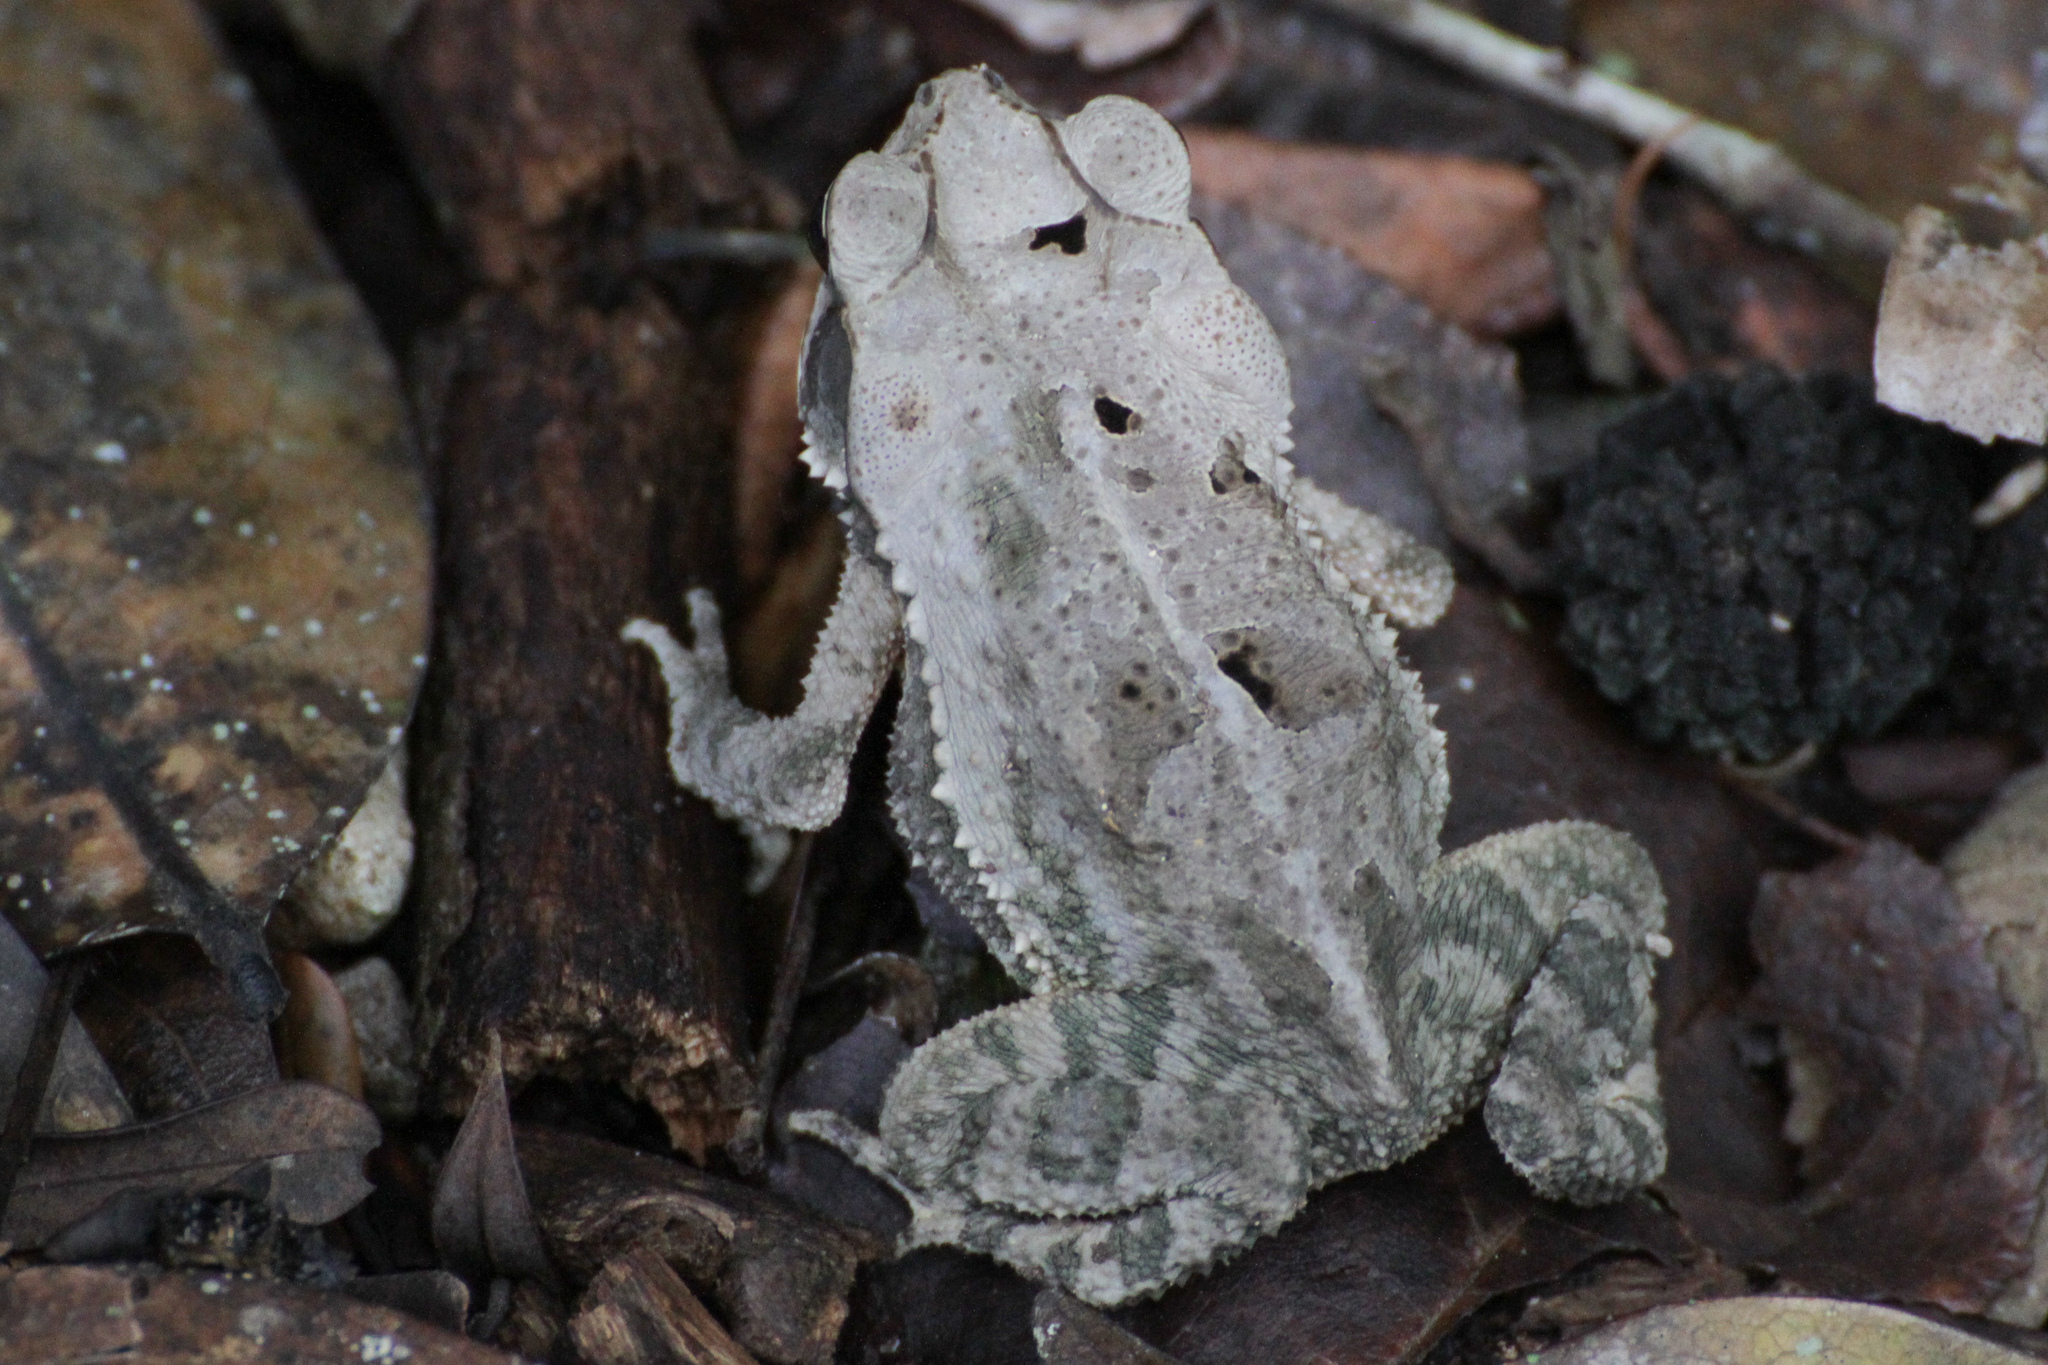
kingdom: Animalia
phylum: Chordata
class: Amphibia
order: Anura
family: Bufonidae
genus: Incilius
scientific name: Incilius valliceps
